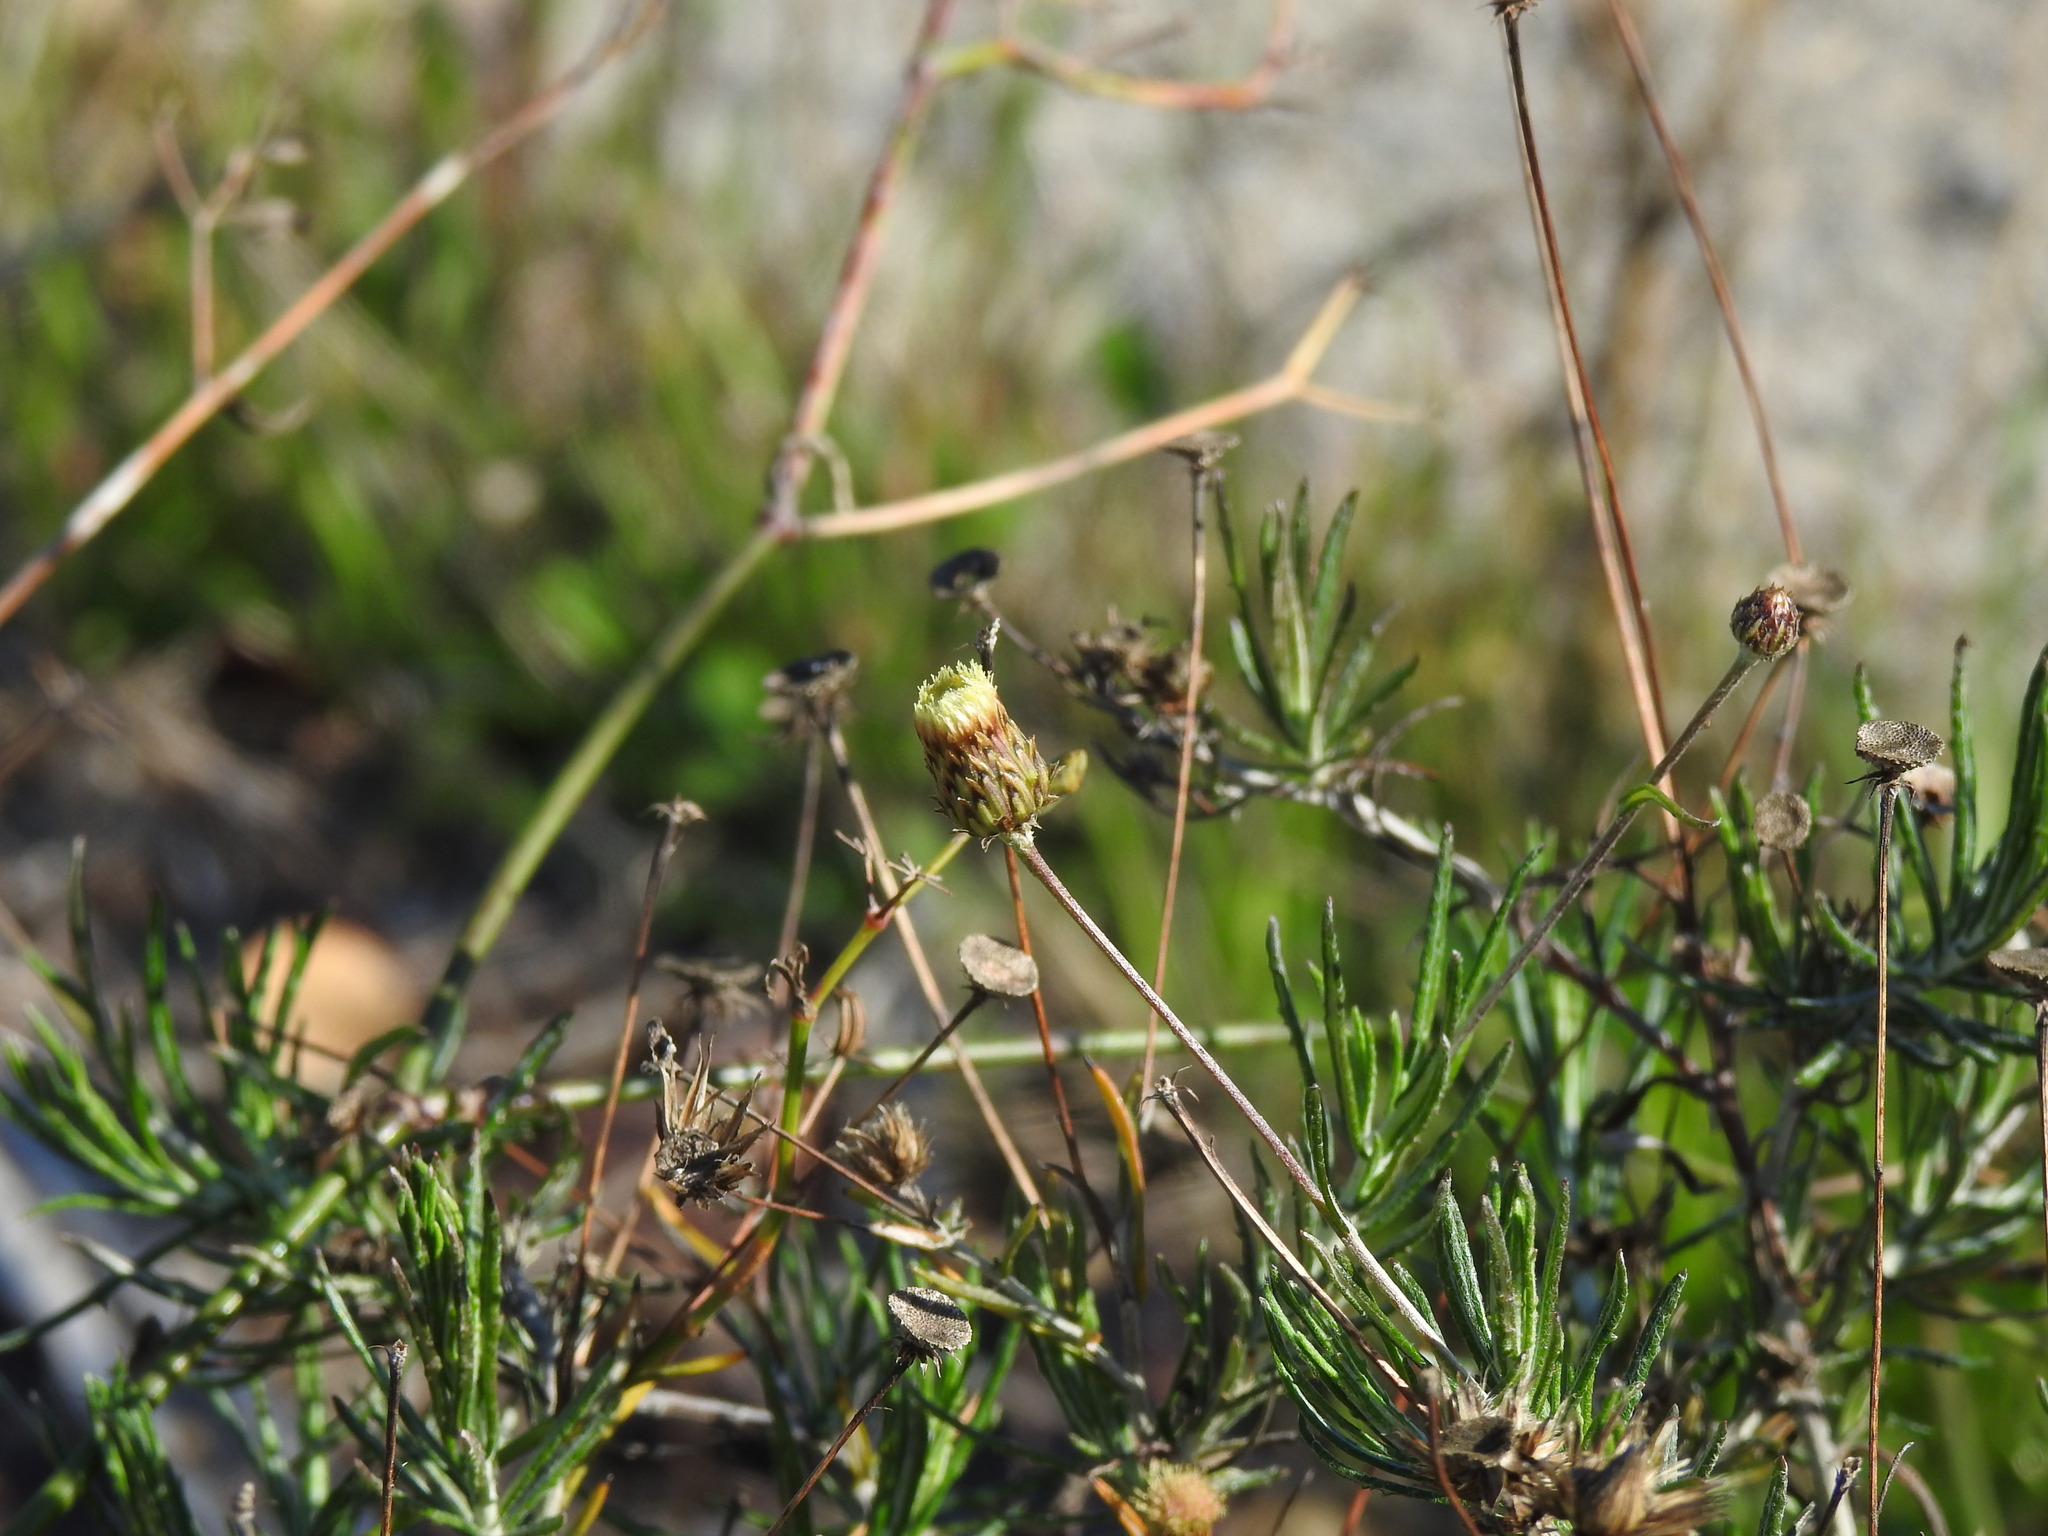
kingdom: Plantae
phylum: Tracheophyta
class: Magnoliopsida
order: Asterales
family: Asteraceae
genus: Phagnalon
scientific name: Phagnalon saxatile
